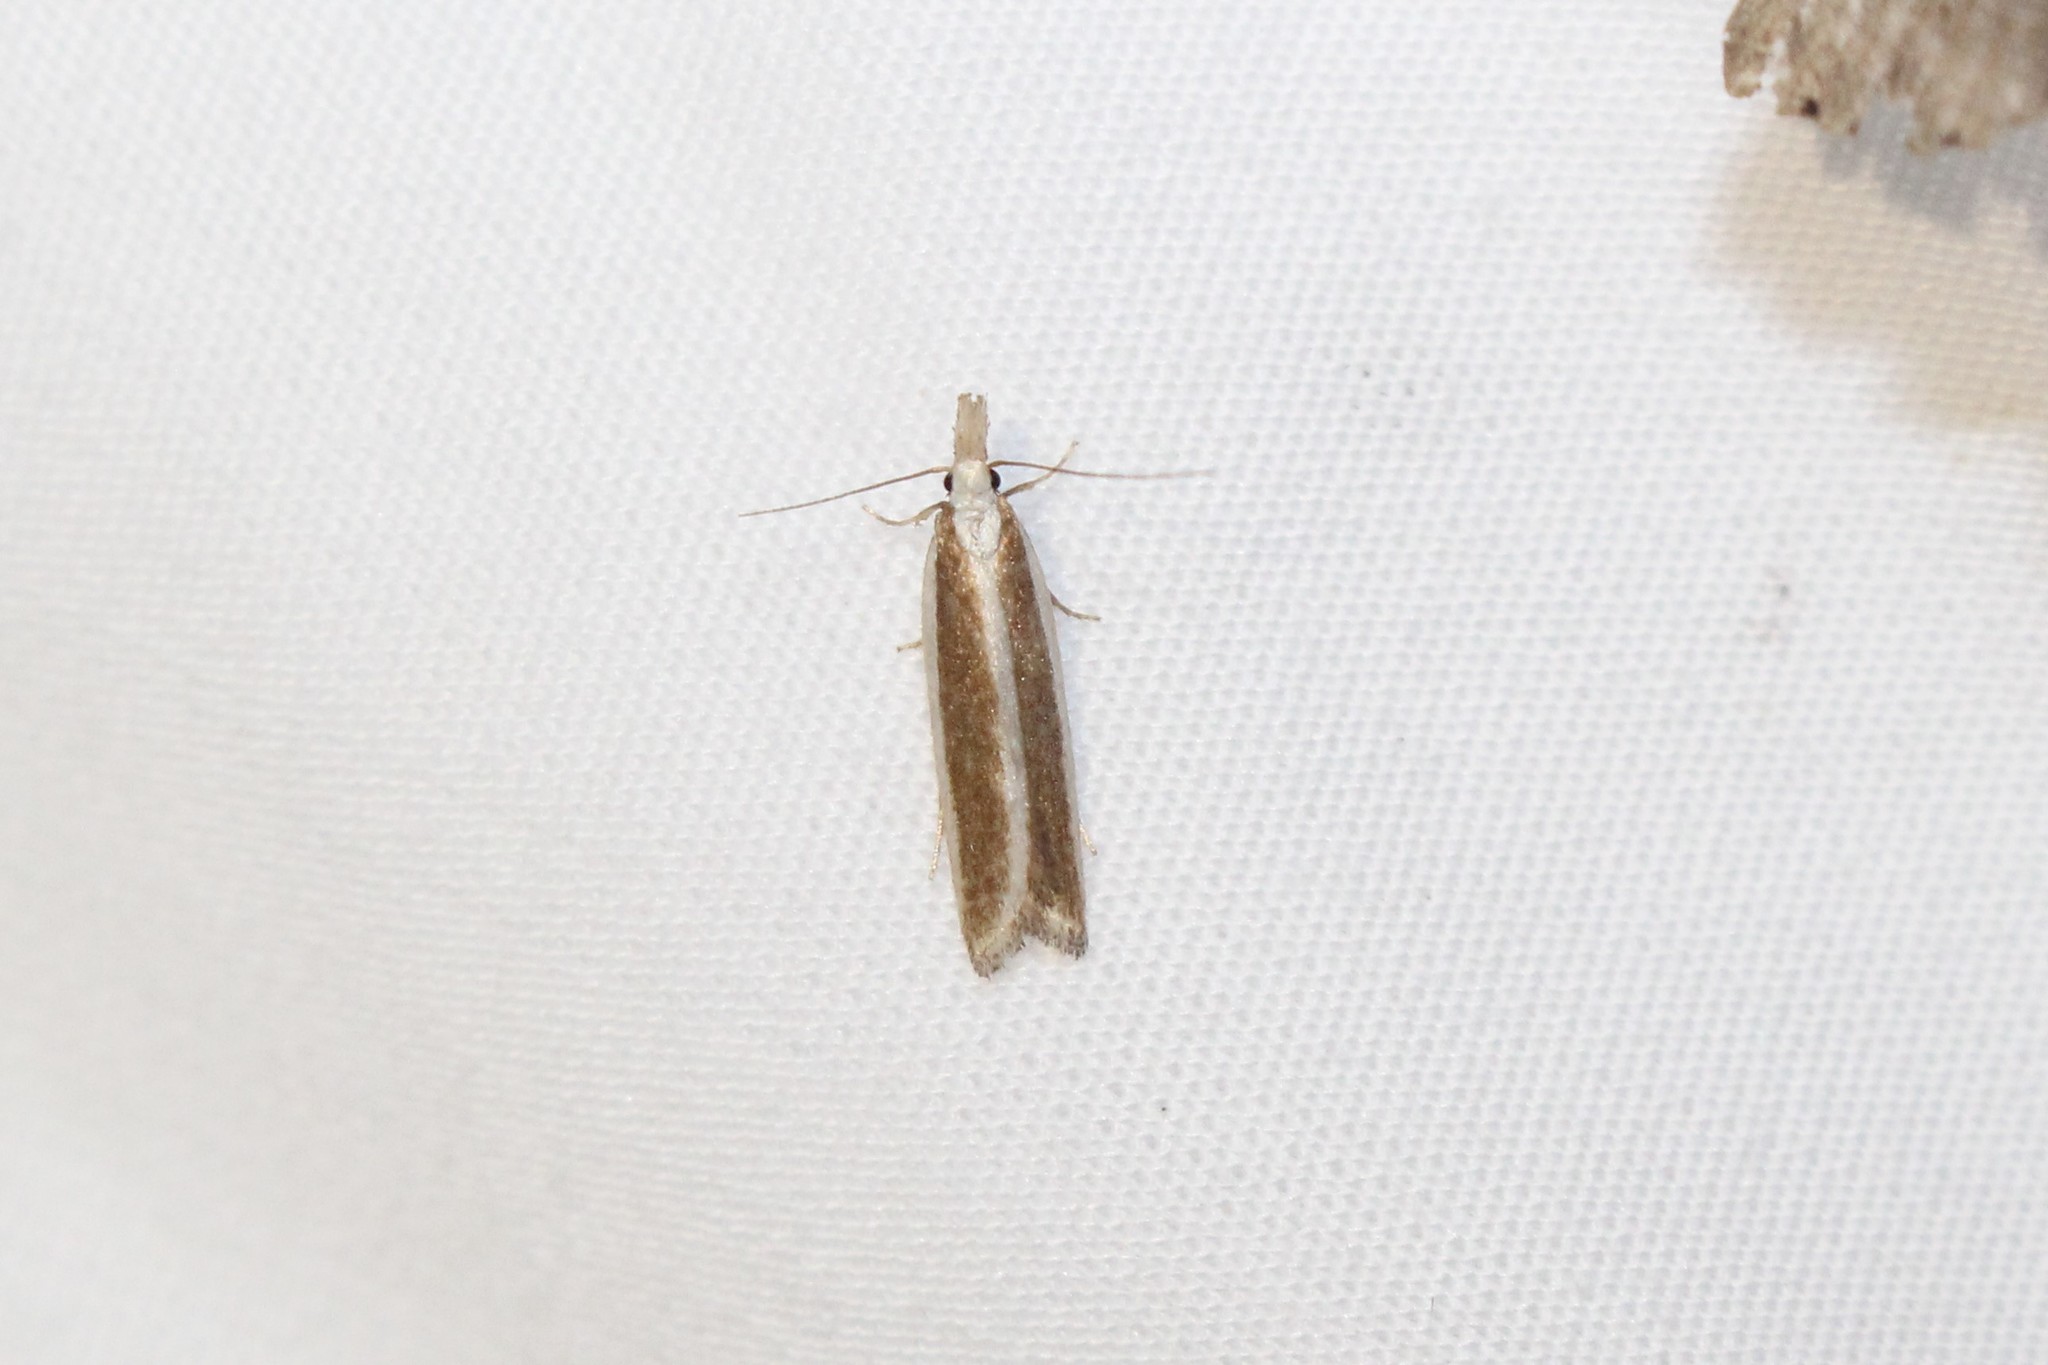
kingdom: Animalia
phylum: Arthropoda
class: Insecta
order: Lepidoptera
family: Gelechiidae
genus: Dichomeris
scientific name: Dichomeris marginella
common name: Juniper webworm
